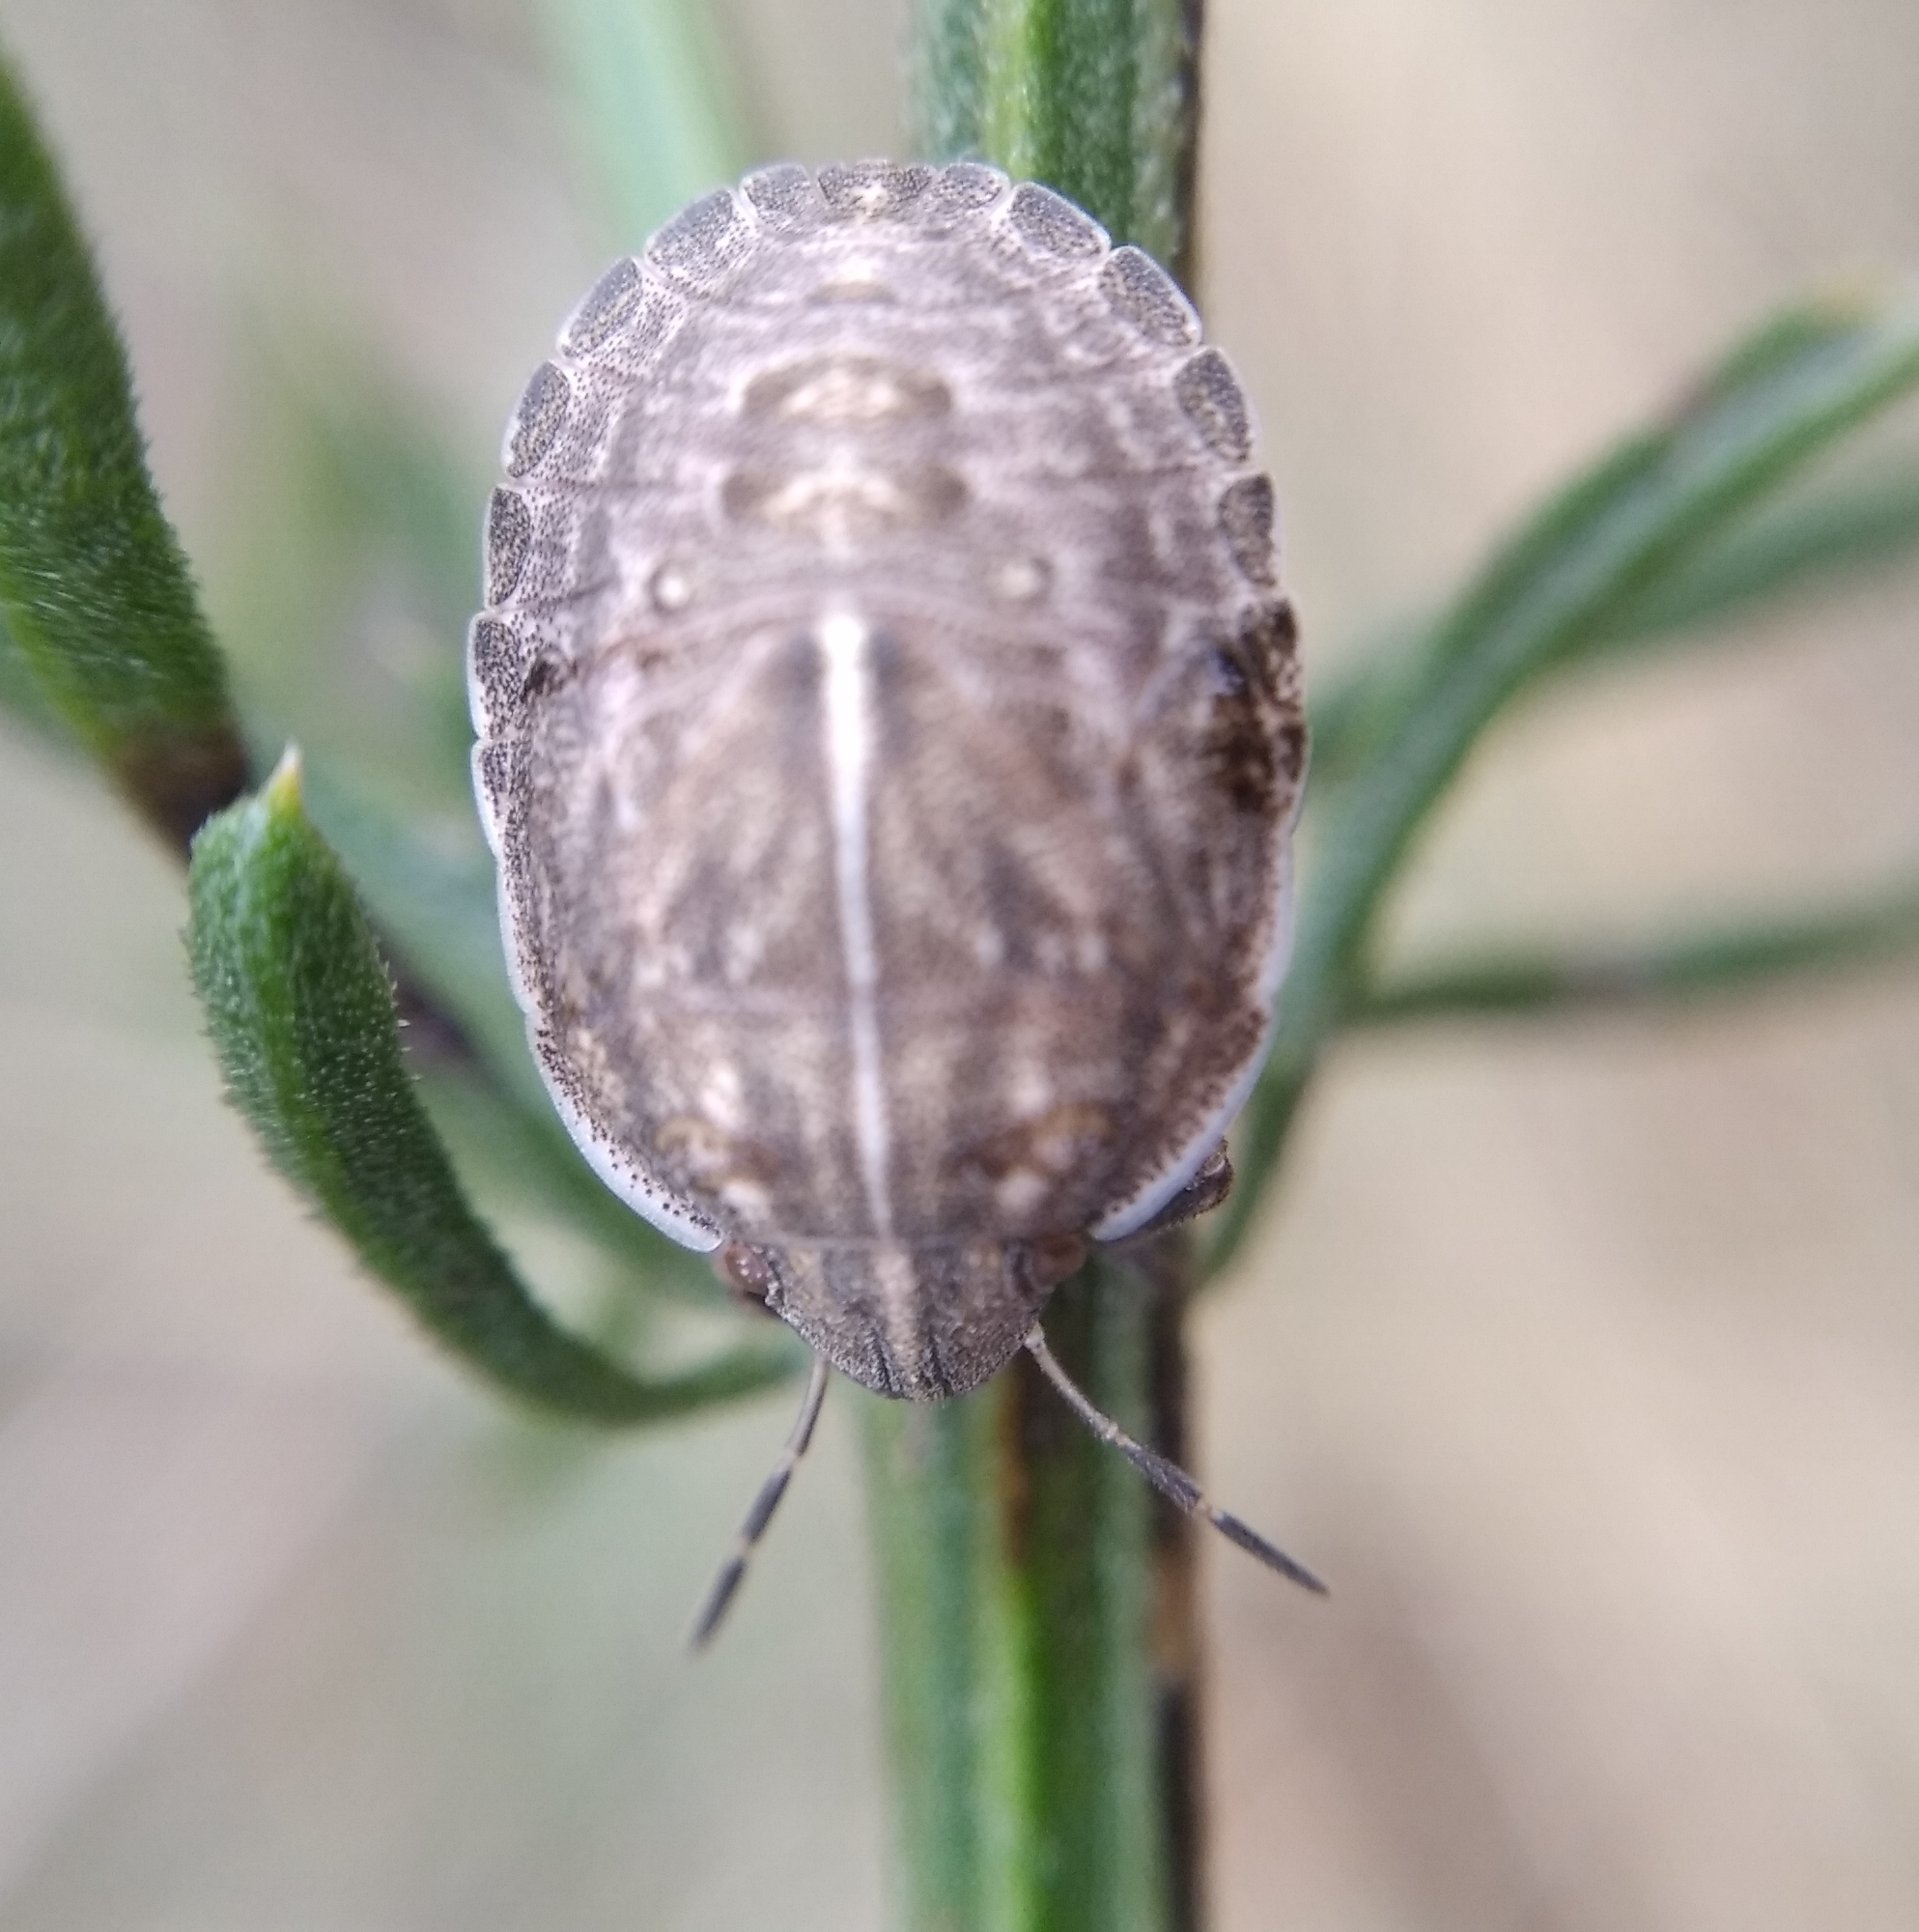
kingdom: Animalia
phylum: Arthropoda
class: Insecta
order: Hemiptera
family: Scutelleridae
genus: Odontotarsus
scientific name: Odontotarsus purpureolineatus
